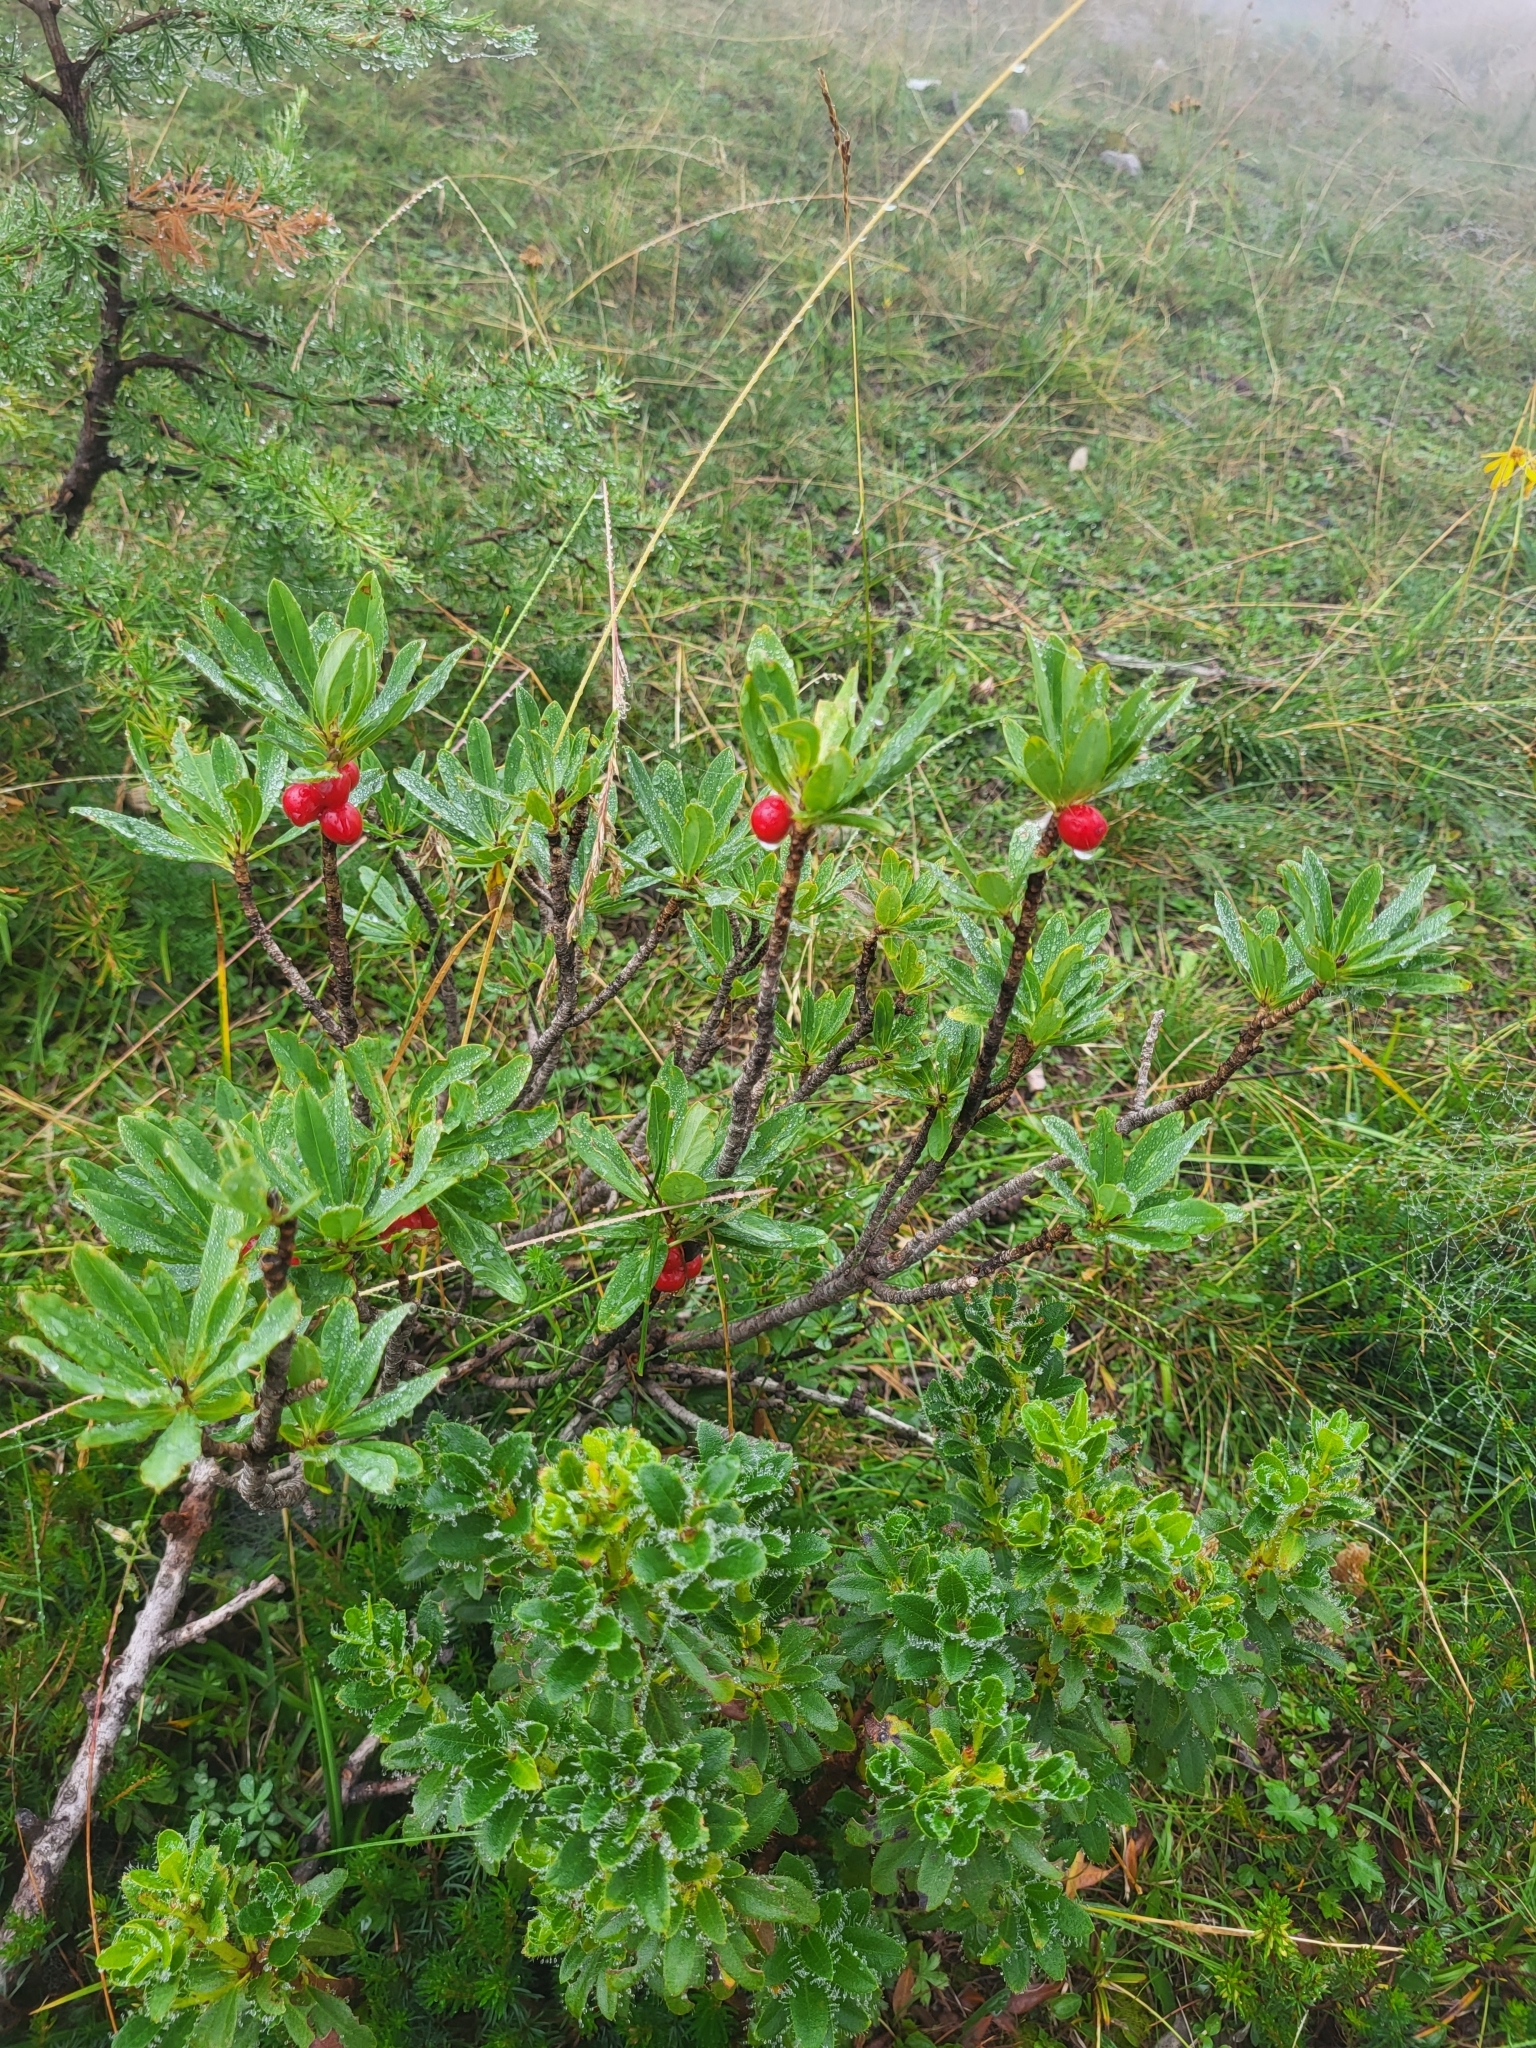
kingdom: Plantae
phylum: Tracheophyta
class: Magnoliopsida
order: Malvales
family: Thymelaeaceae
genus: Daphne
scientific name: Daphne mezereum
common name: Mezereon
